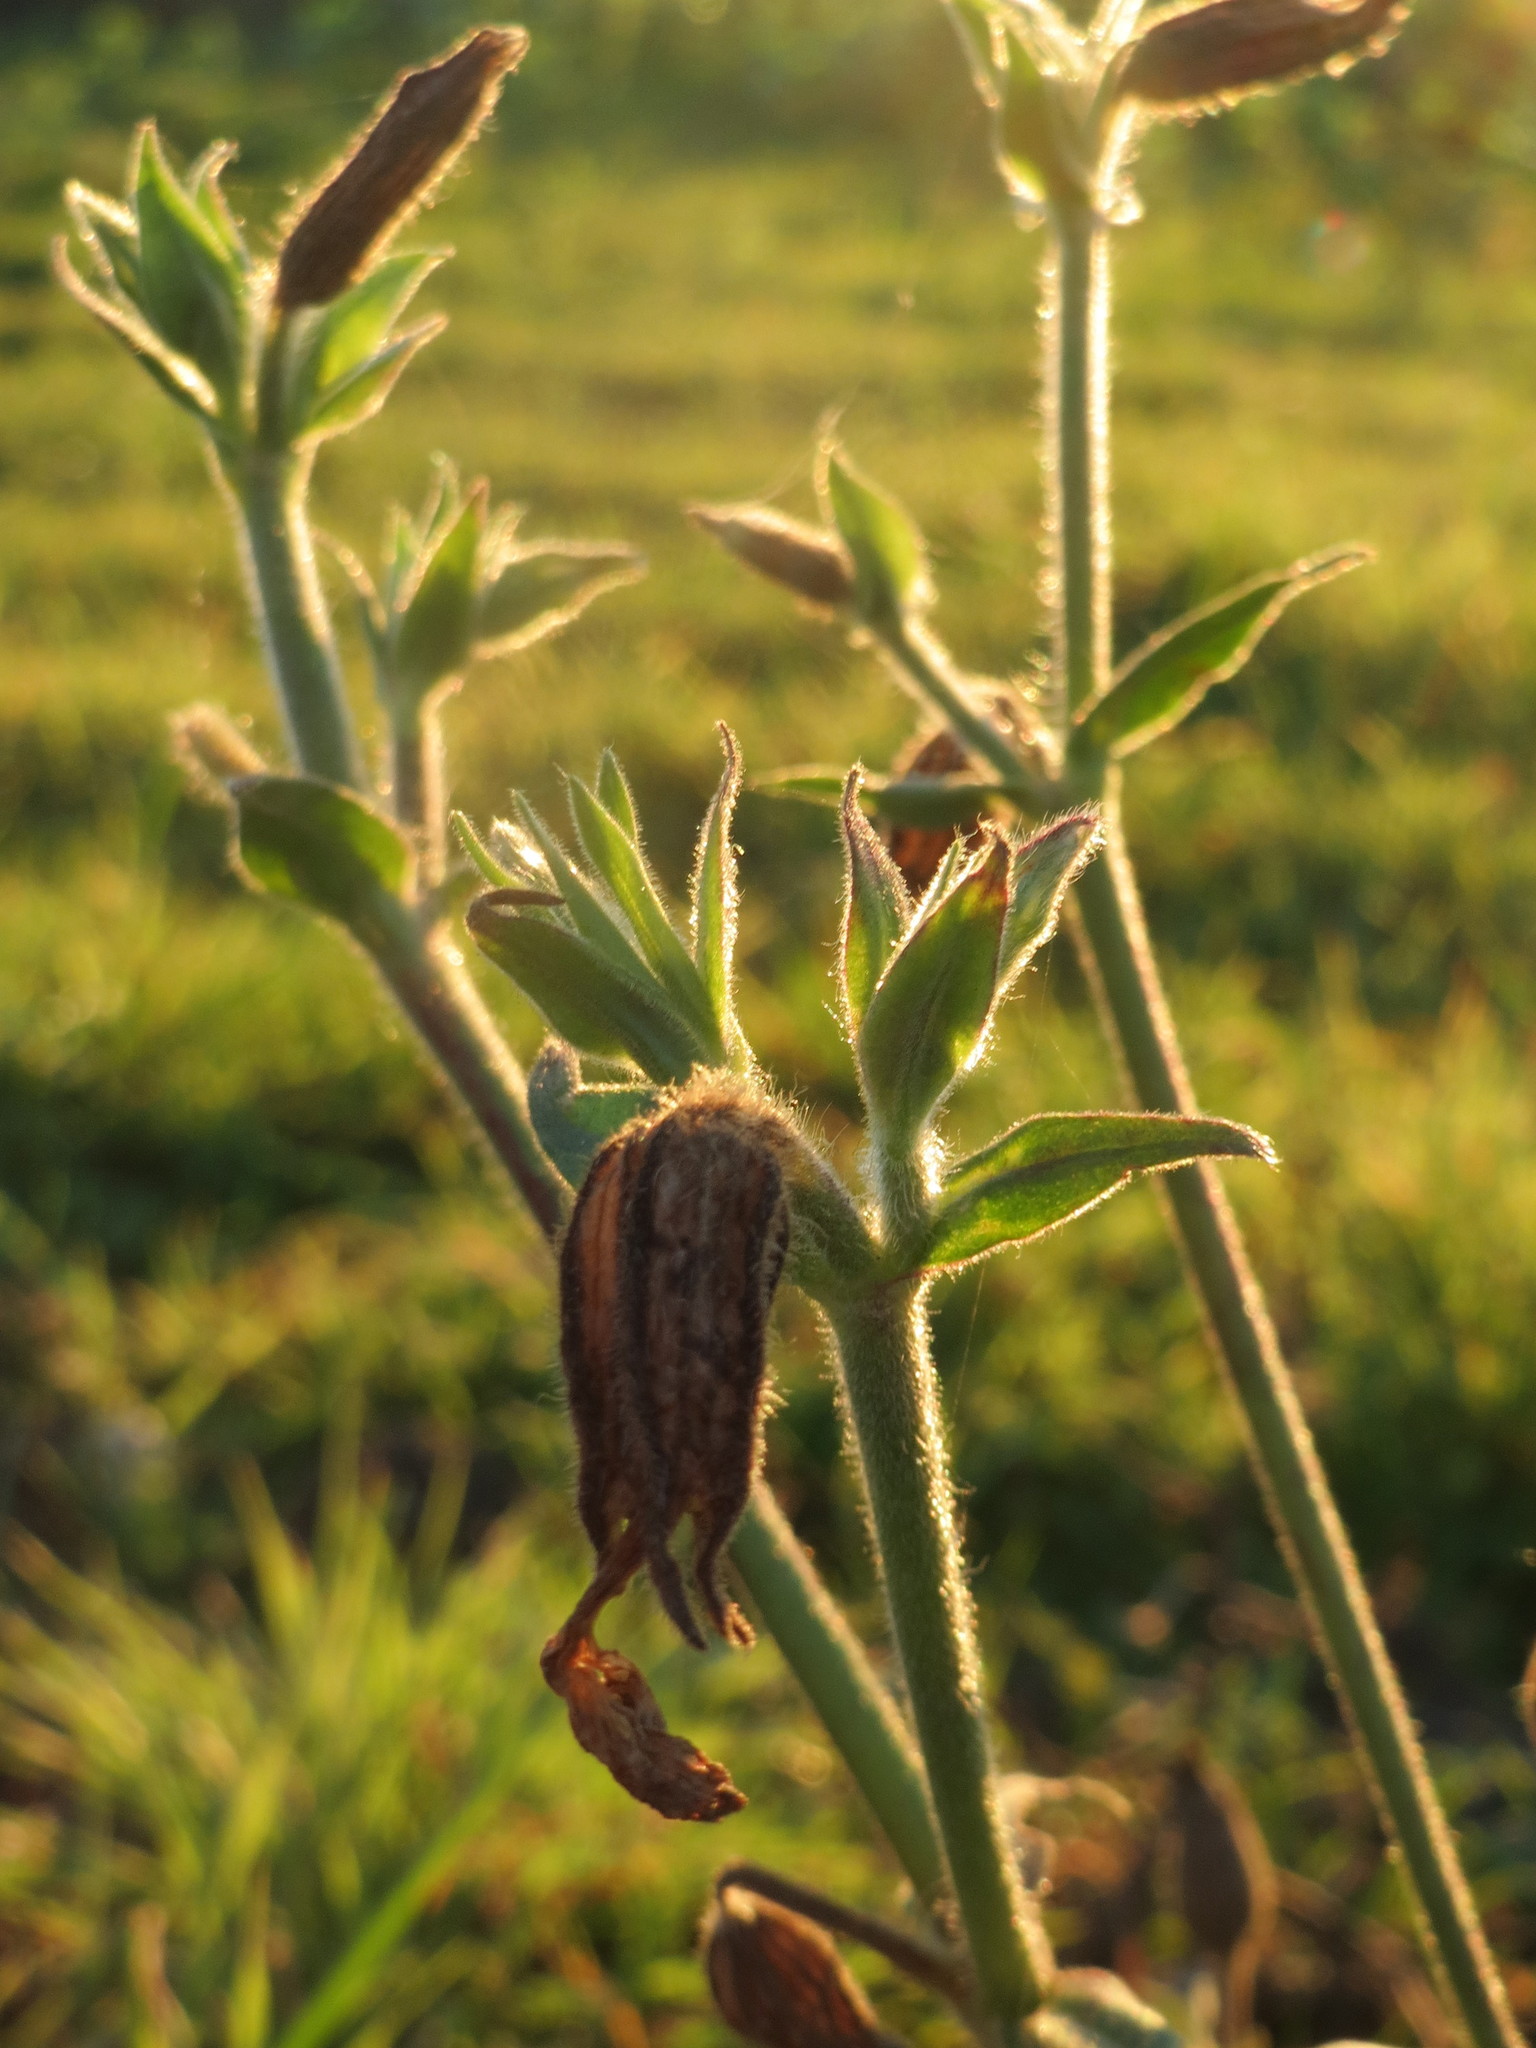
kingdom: Plantae
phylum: Tracheophyta
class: Magnoliopsida
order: Caryophyllales
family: Caryophyllaceae
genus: Silene
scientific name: Silene latifolia
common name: White campion
